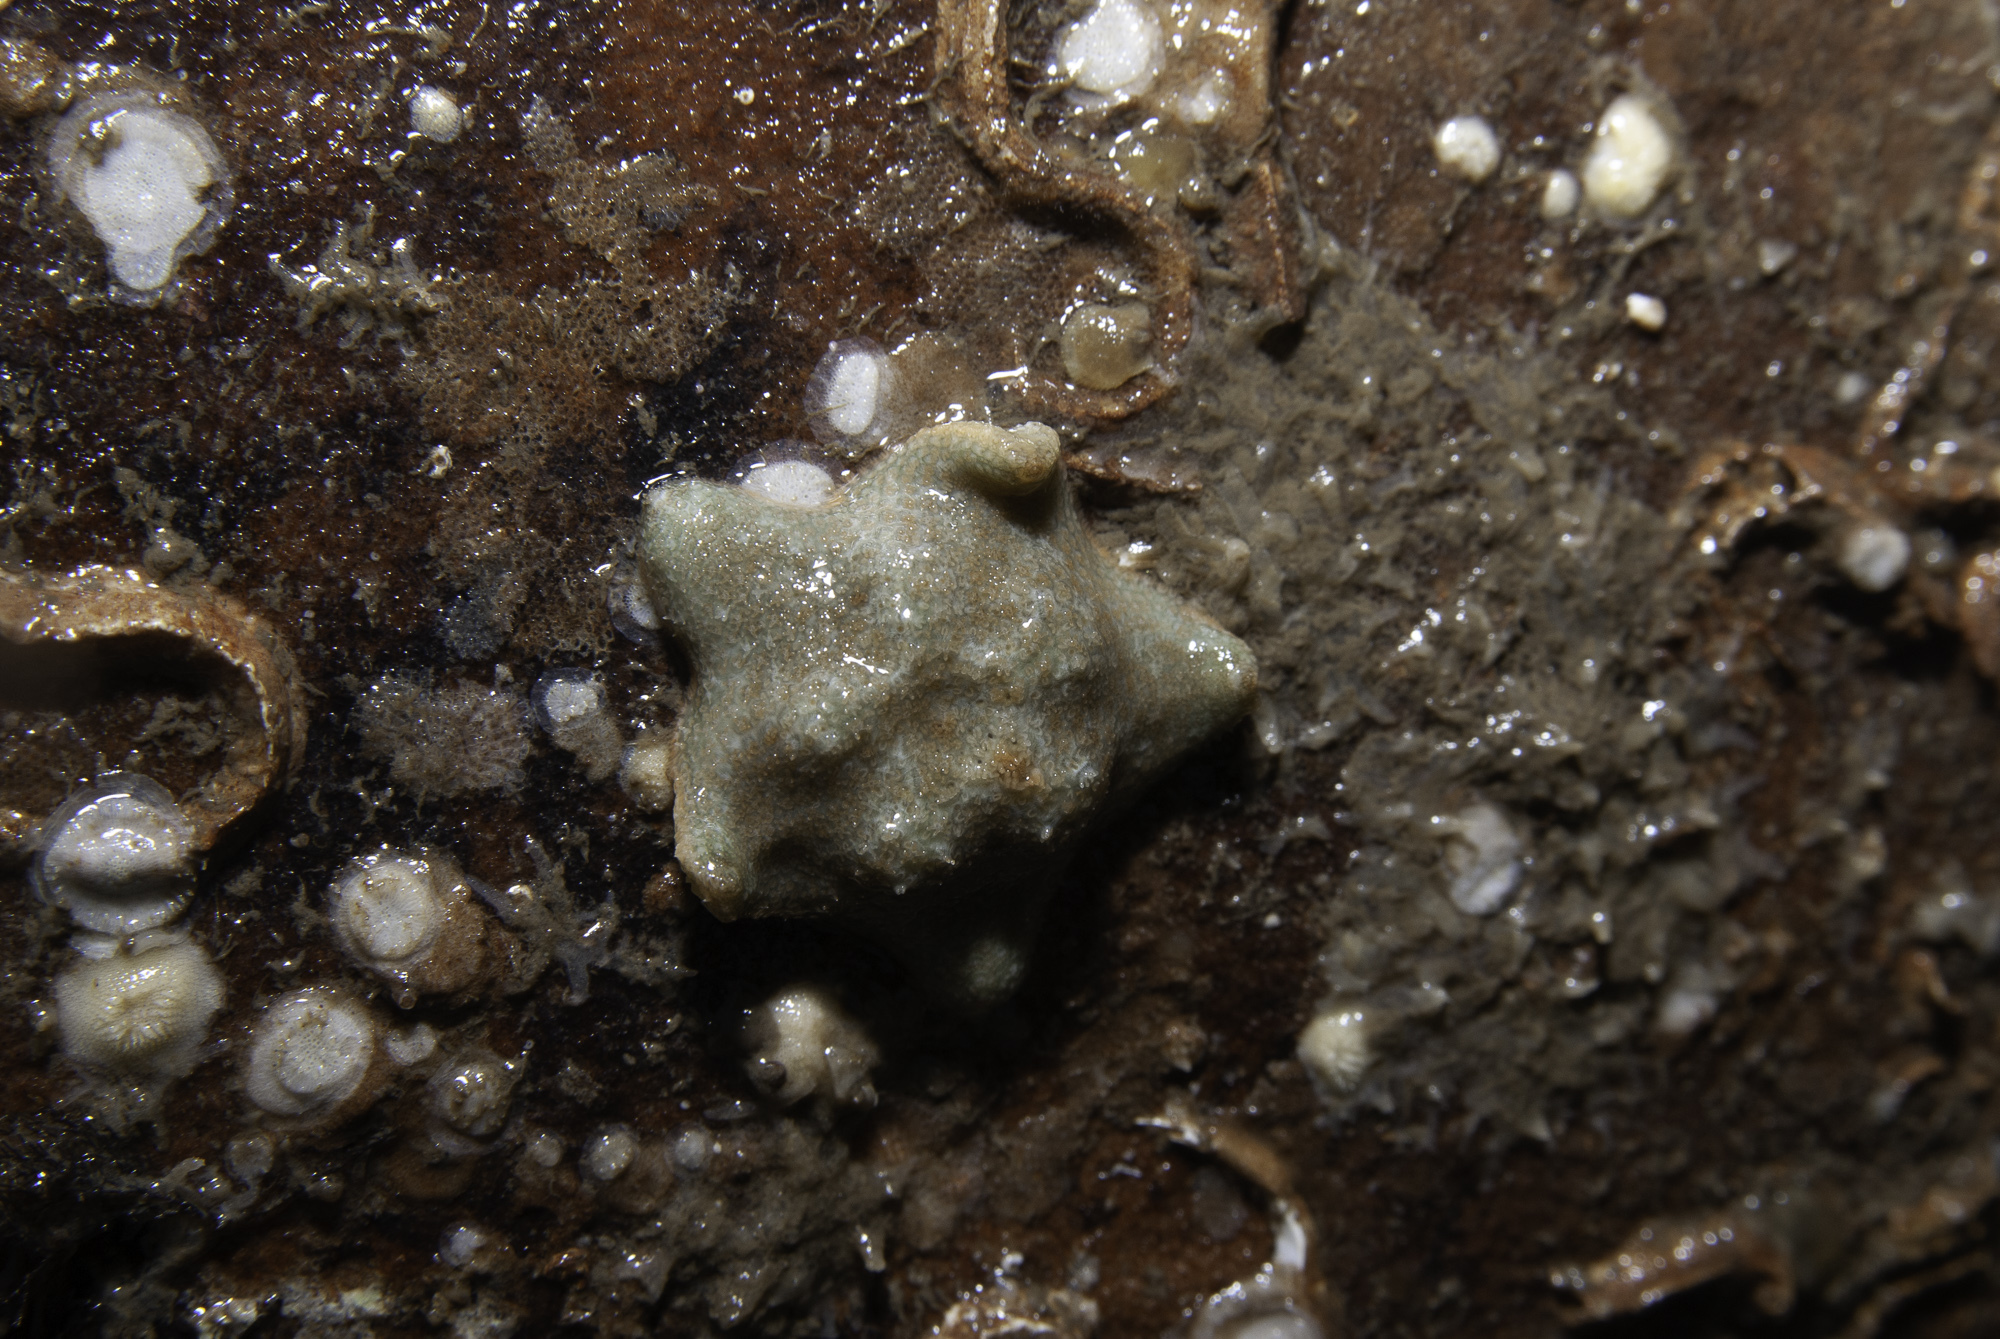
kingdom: Animalia
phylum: Echinodermata
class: Asteroidea
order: Valvatida
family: Asterinidae
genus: Asterina
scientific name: Asterina gibbosa
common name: Cushion star
